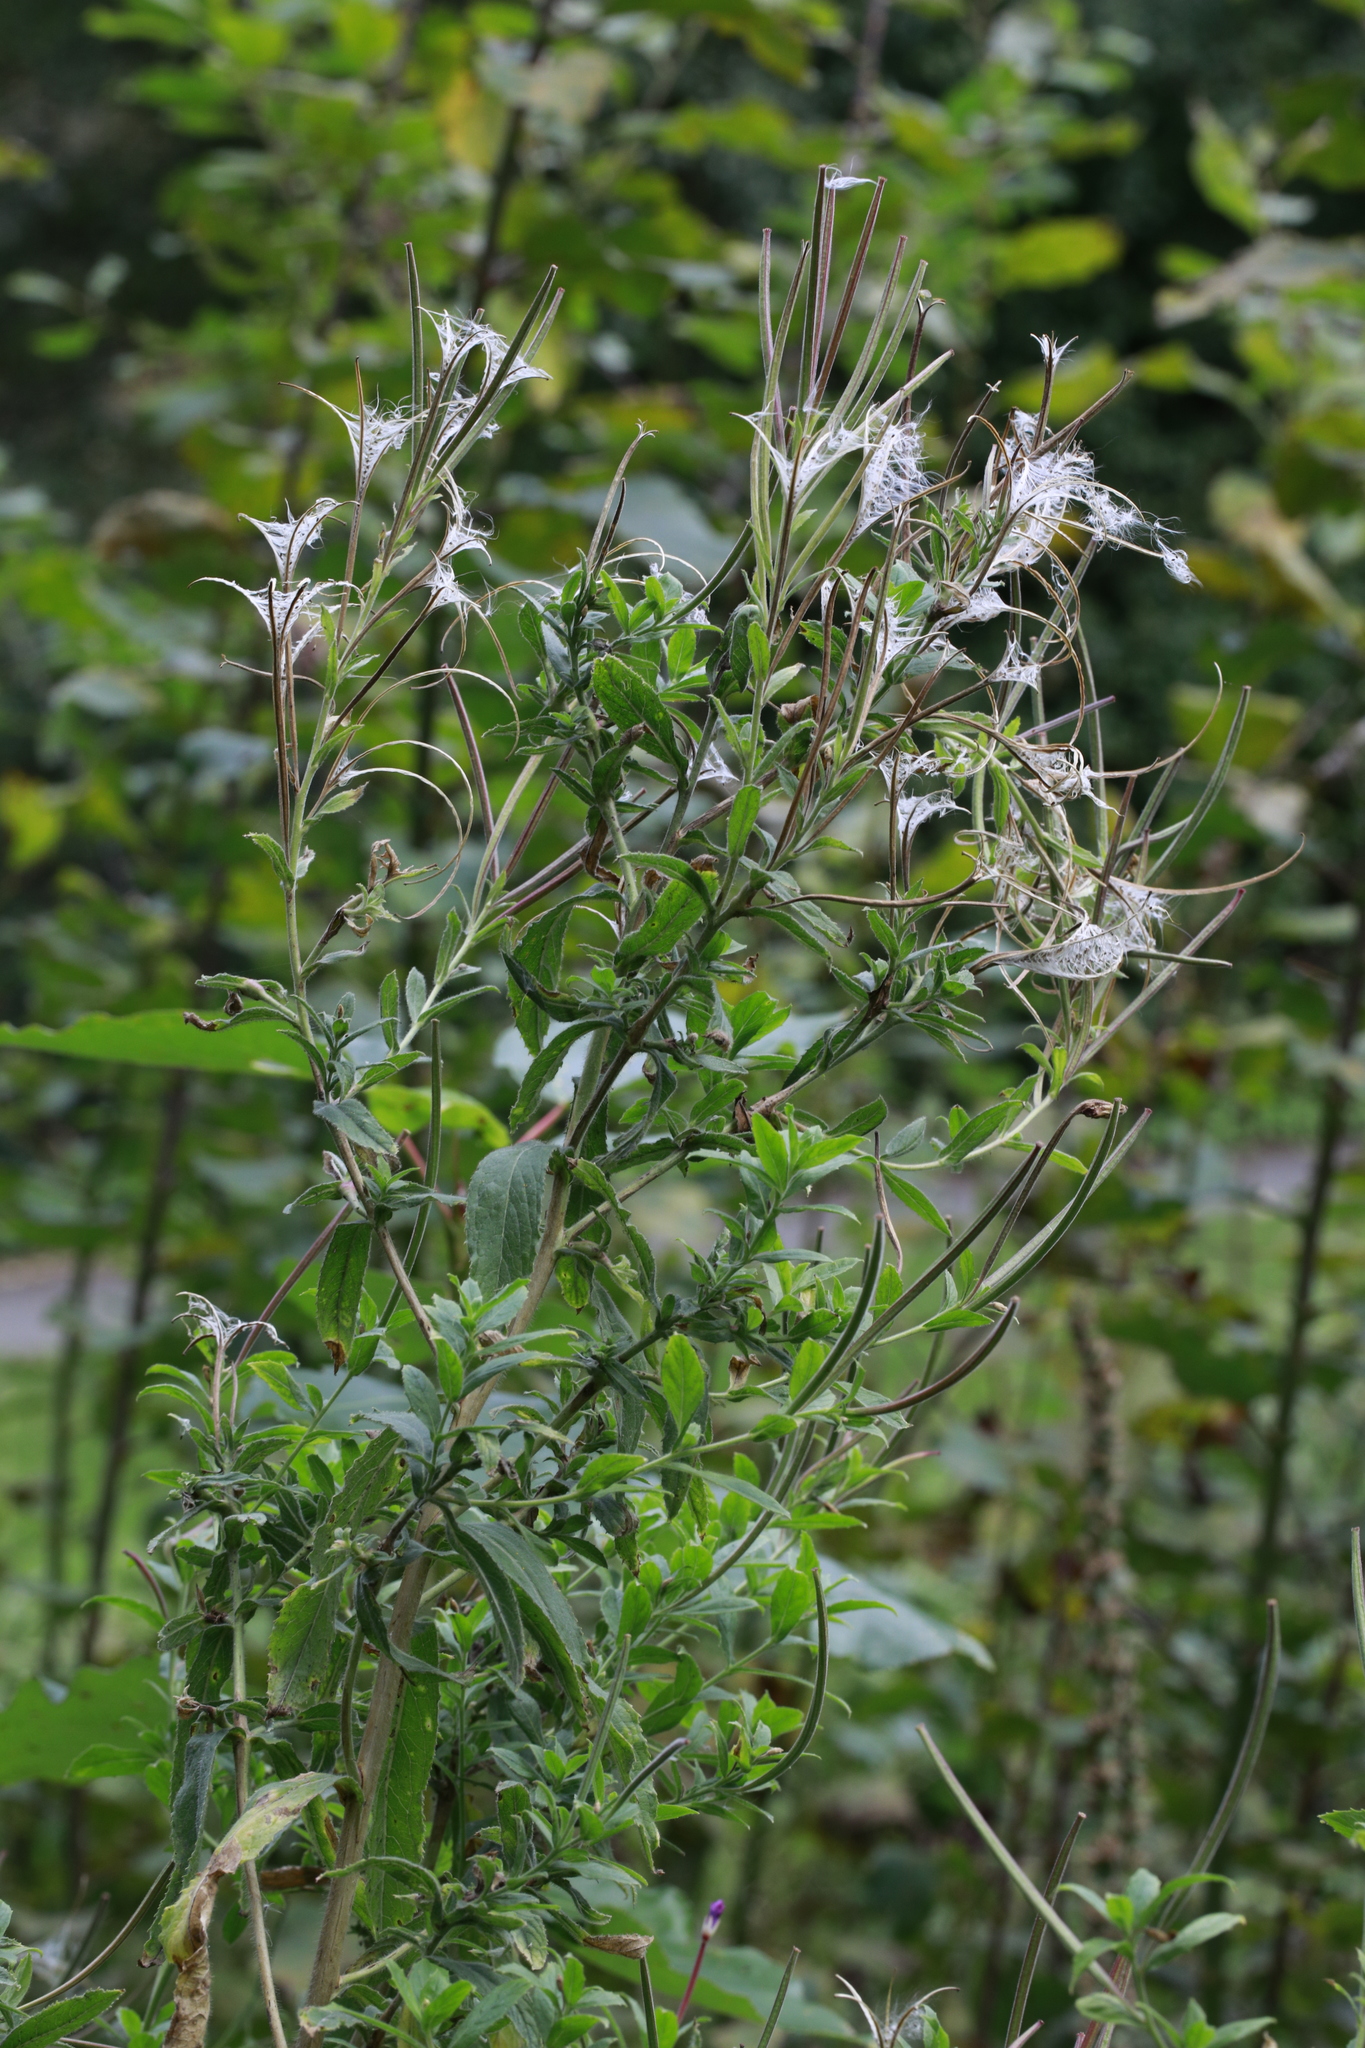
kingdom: Plantae
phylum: Tracheophyta
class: Magnoliopsida
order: Myrtales
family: Onagraceae
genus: Epilobium
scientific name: Epilobium ciliatum
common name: American willowherb
